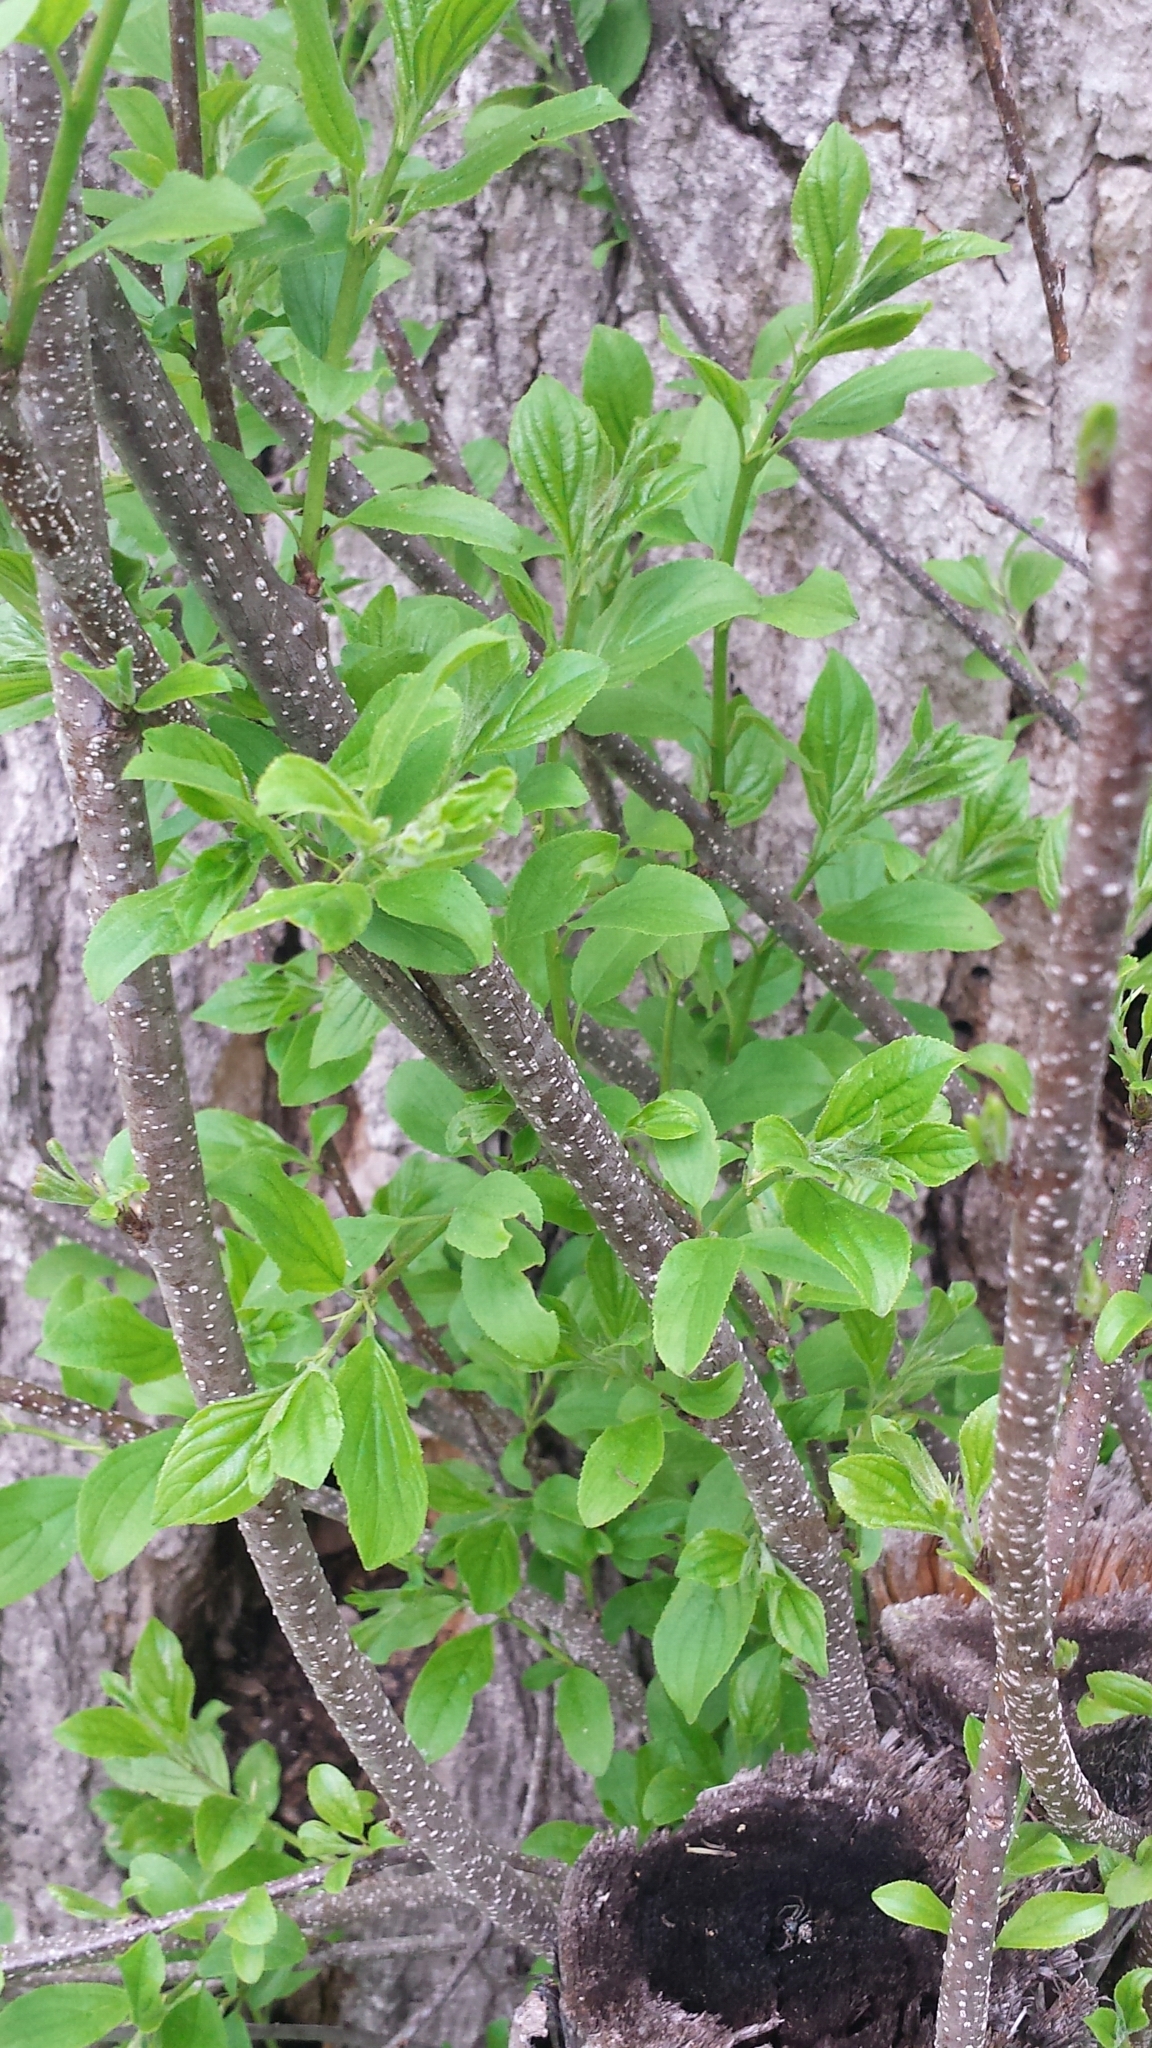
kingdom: Plantae
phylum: Tracheophyta
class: Magnoliopsida
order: Rosales
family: Rhamnaceae
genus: Rhamnus
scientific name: Rhamnus cathartica
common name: Common buckthorn
